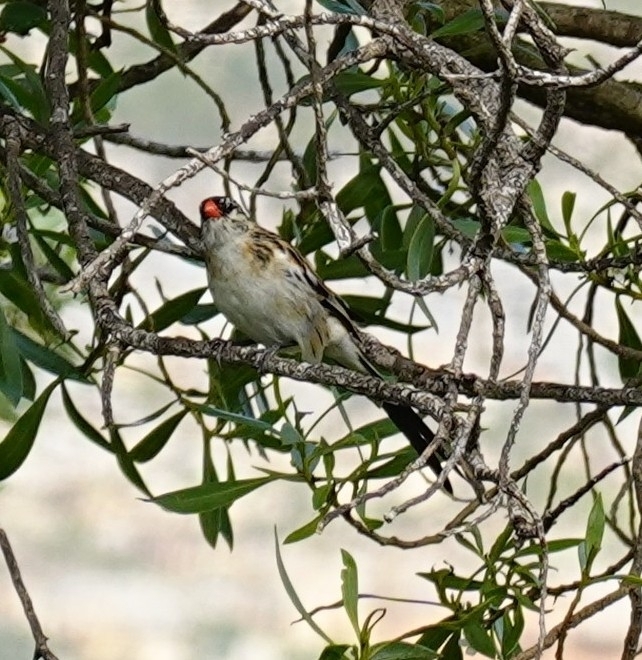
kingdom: Animalia
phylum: Chordata
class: Aves
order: Passeriformes
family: Viduidae
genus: Vidua
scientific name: Vidua macroura
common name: Pin-tailed whydah
